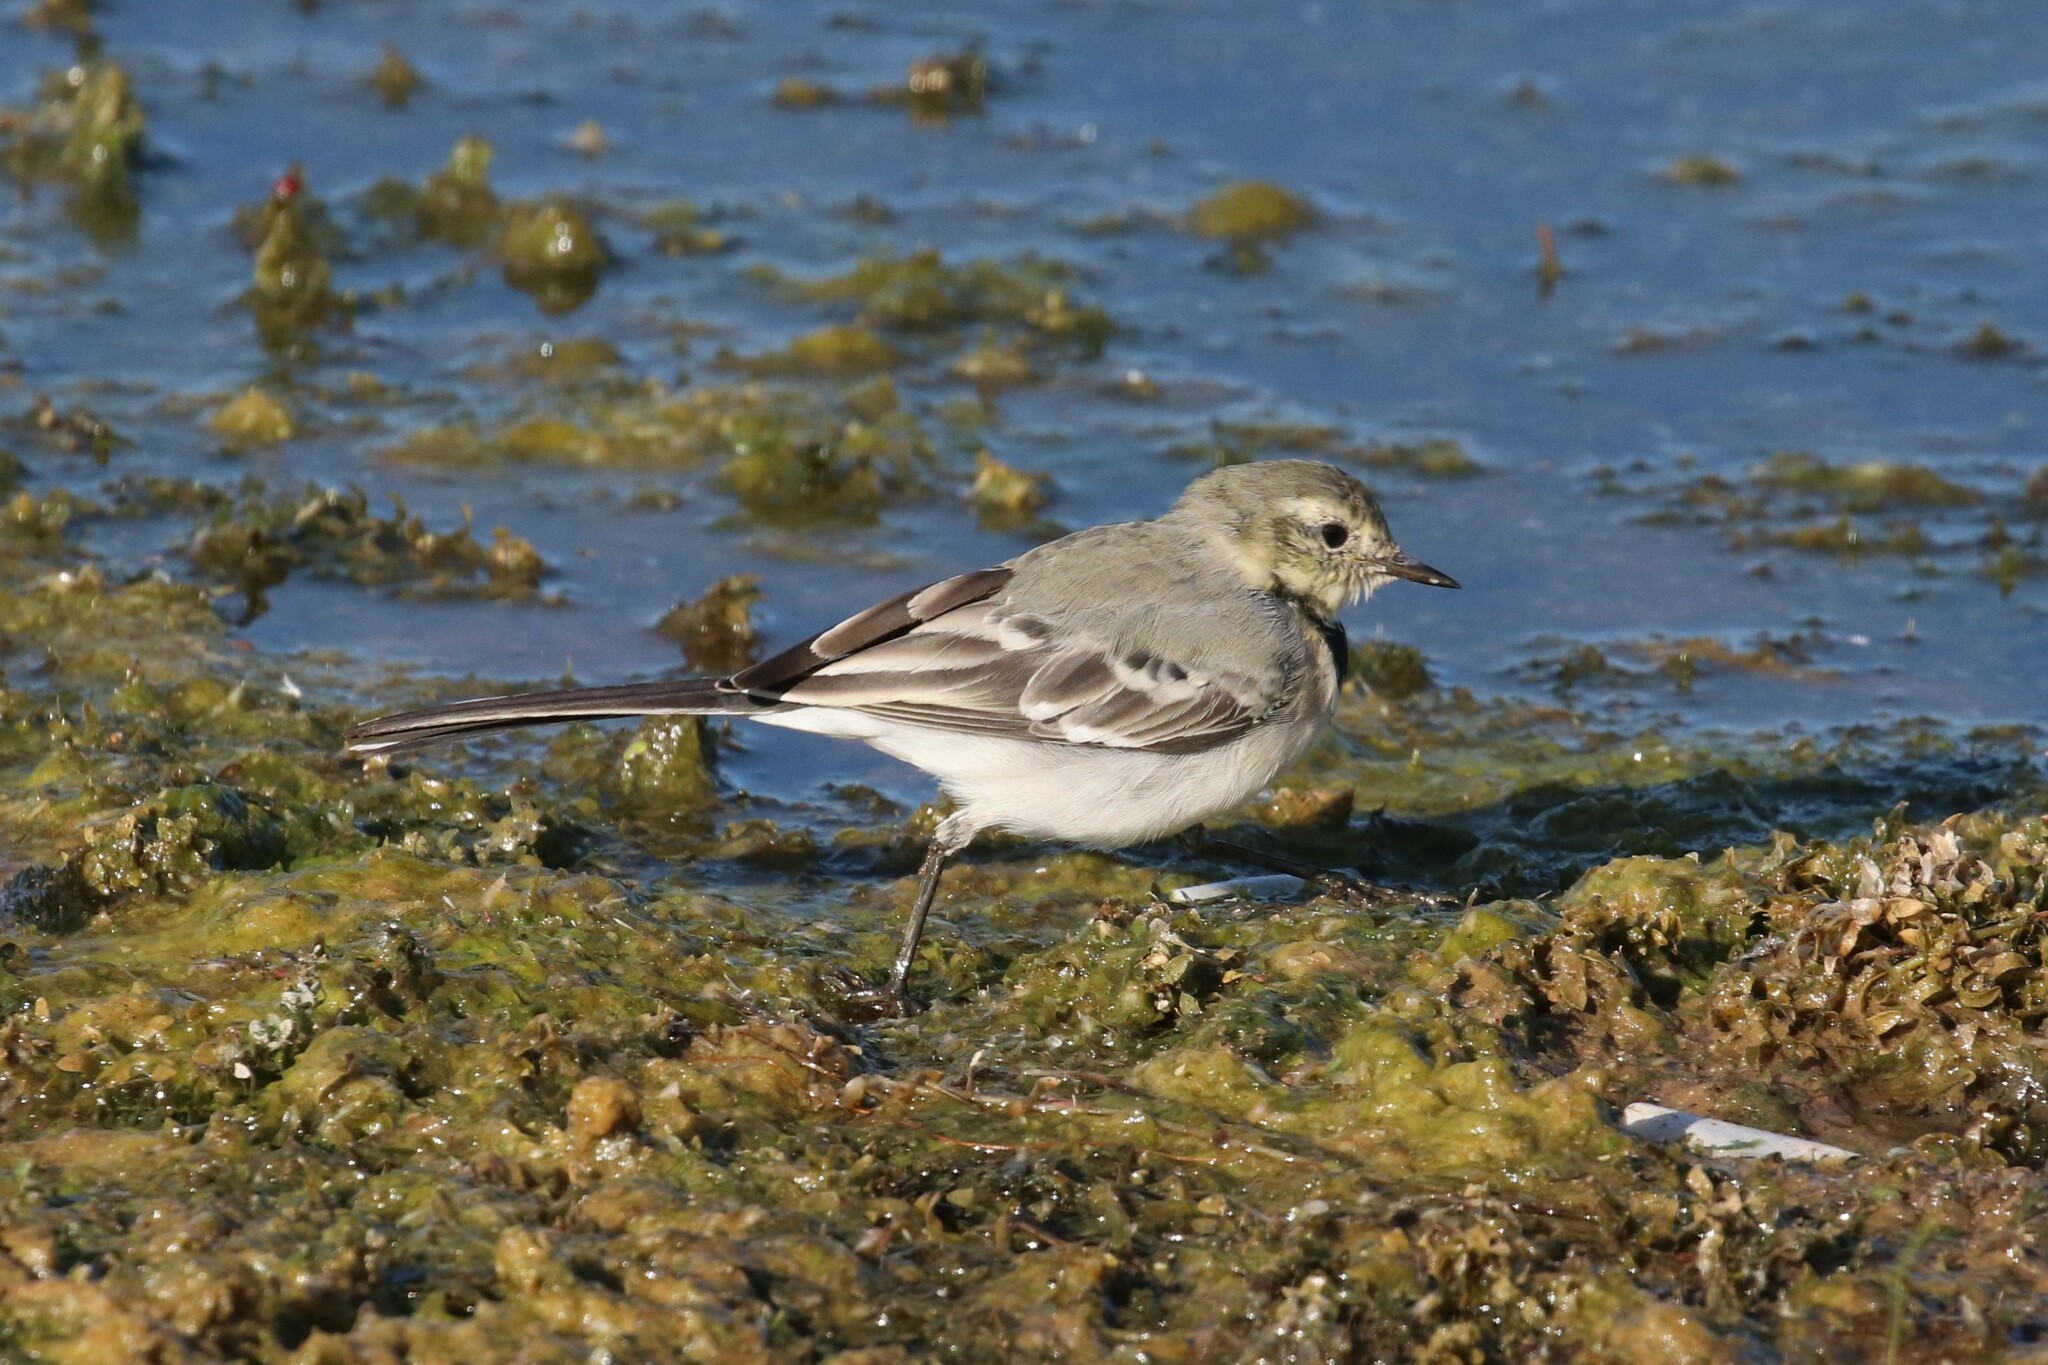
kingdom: Animalia
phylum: Chordata
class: Aves
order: Passeriformes
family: Motacillidae
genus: Motacilla
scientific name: Motacilla alba
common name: White wagtail
